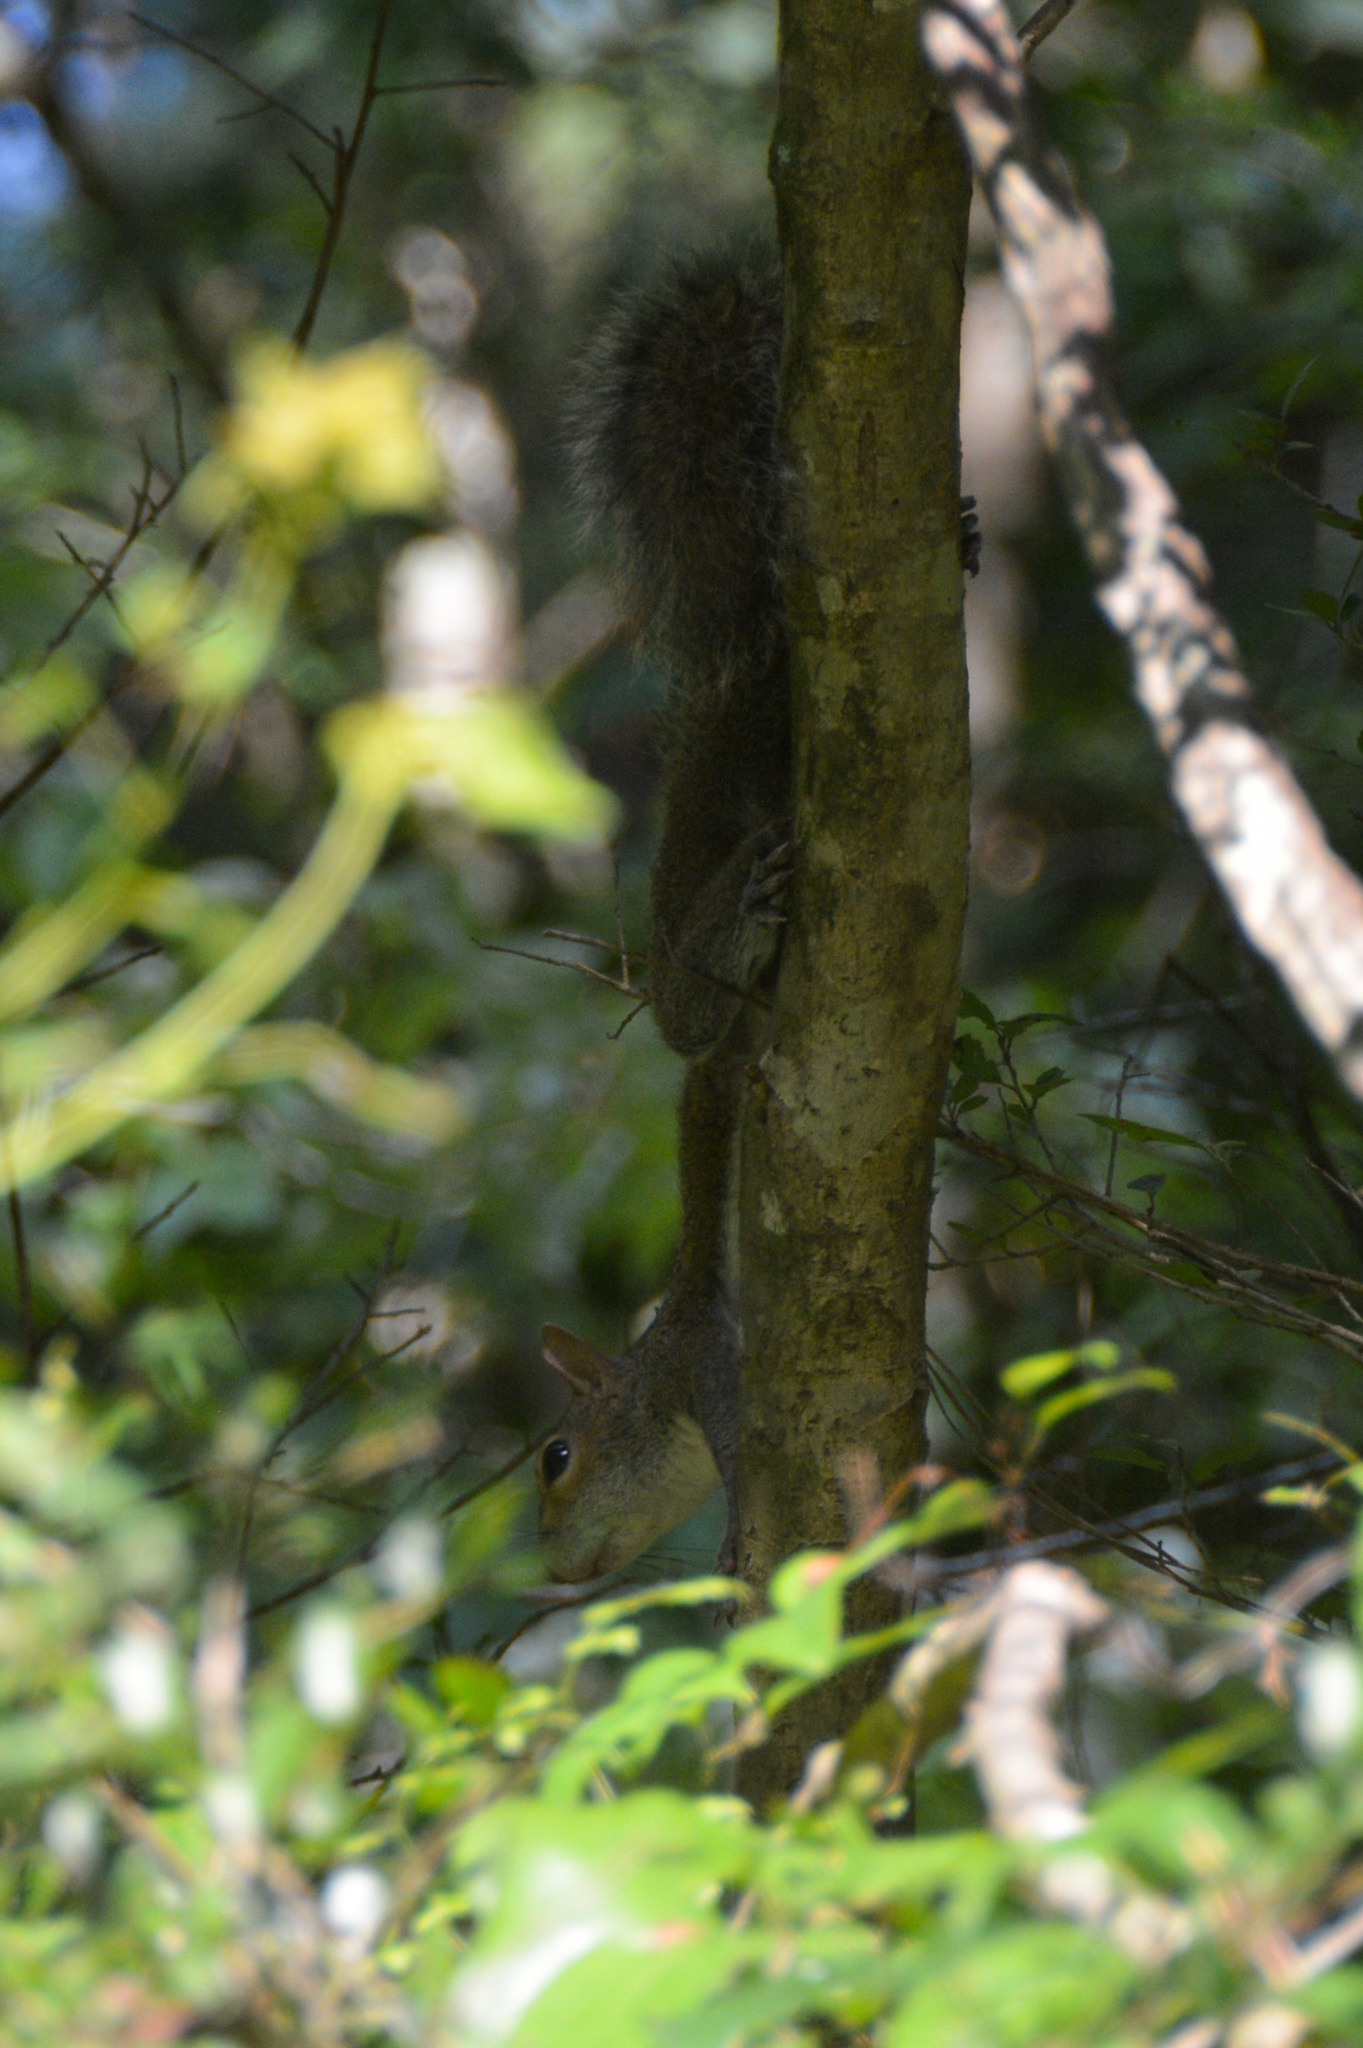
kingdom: Animalia
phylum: Chordata
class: Mammalia
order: Rodentia
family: Sciuridae
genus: Sciurus
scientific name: Sciurus carolinensis
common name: Eastern gray squirrel
